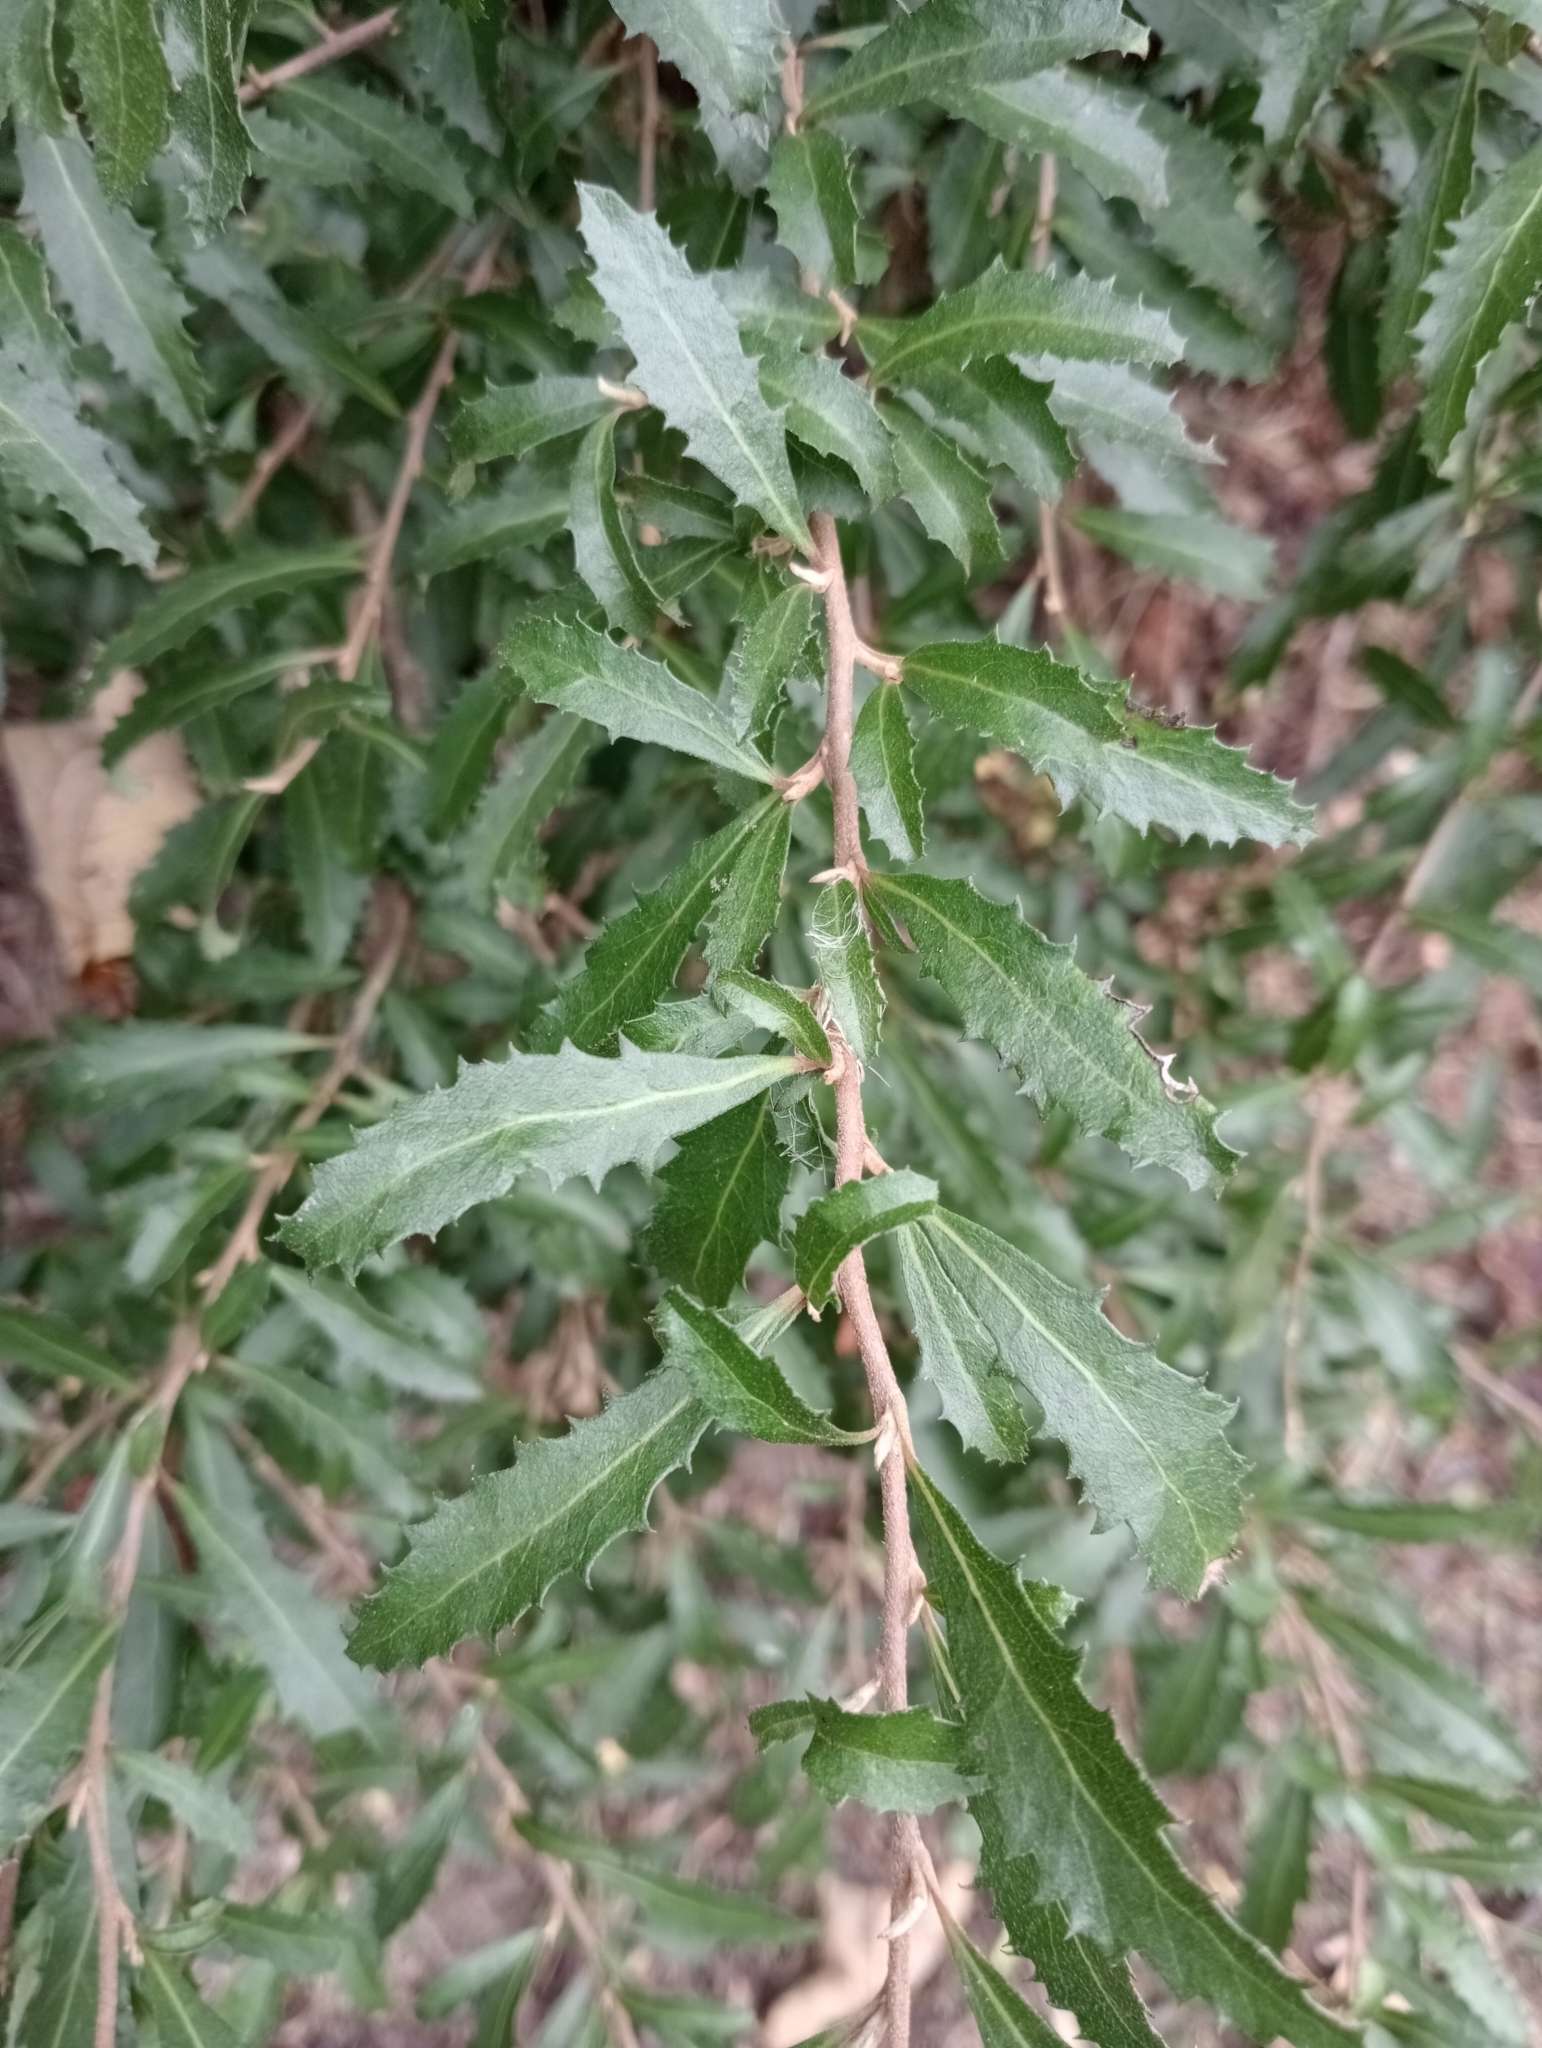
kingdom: Plantae
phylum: Tracheophyta
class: Magnoliopsida
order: Malvales
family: Malvaceae
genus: Hoheria
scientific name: Hoheria angustifolia
